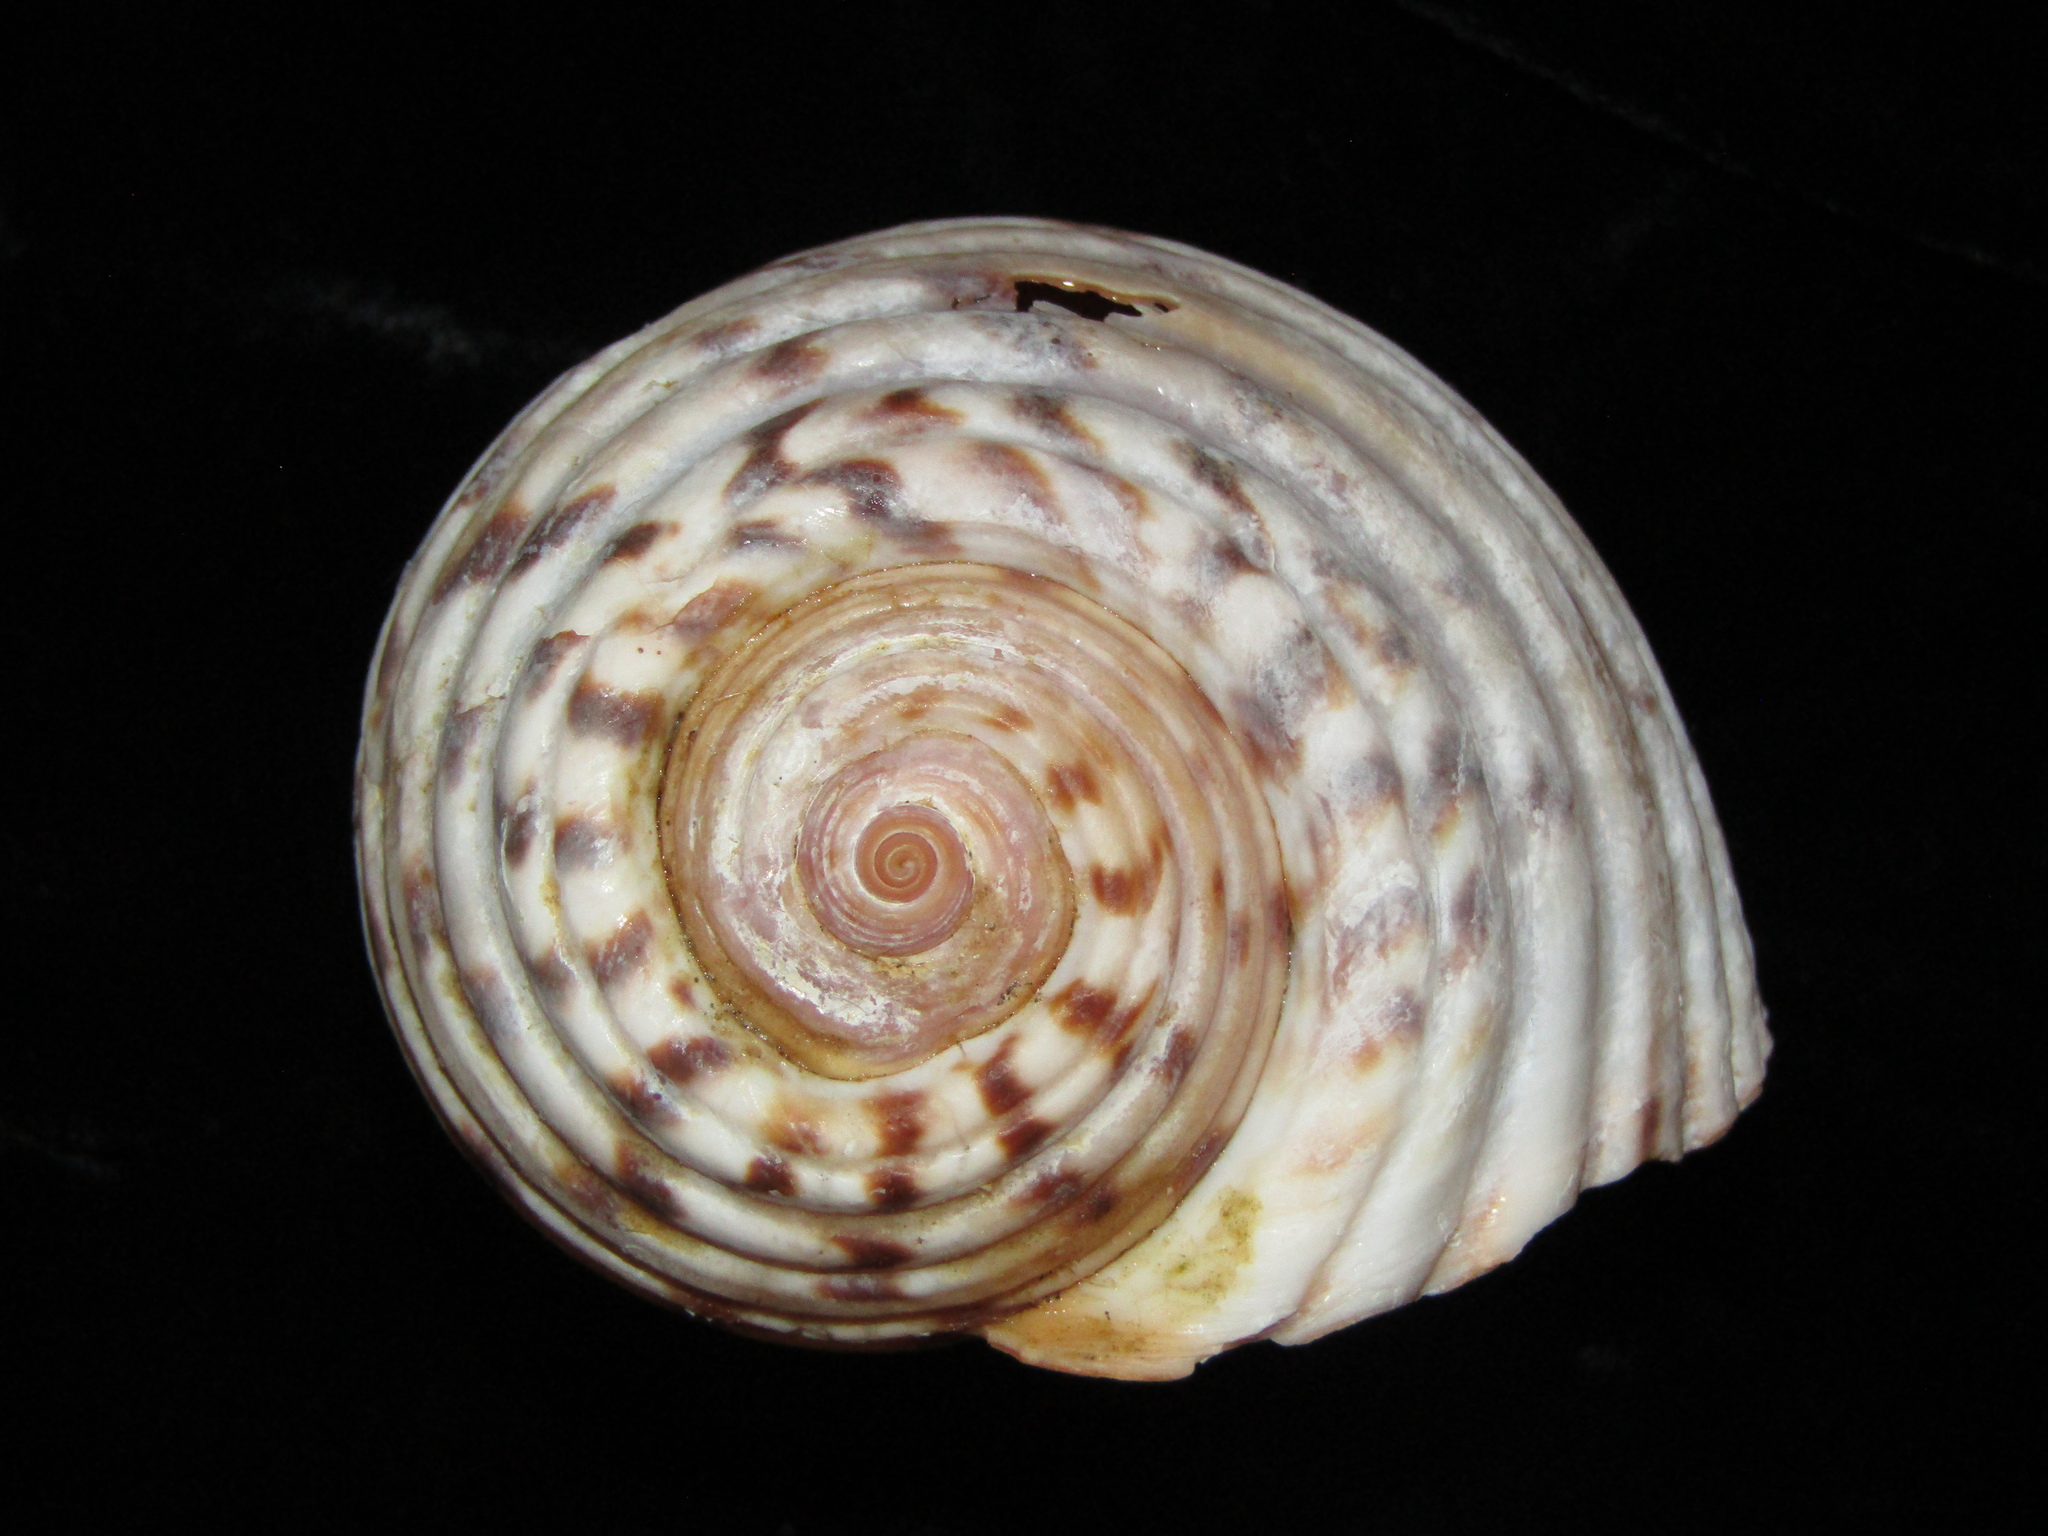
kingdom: Animalia
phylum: Mollusca
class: Gastropoda
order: Littorinimorpha
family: Tonnidae
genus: Tonna
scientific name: Tonna tankervillii
